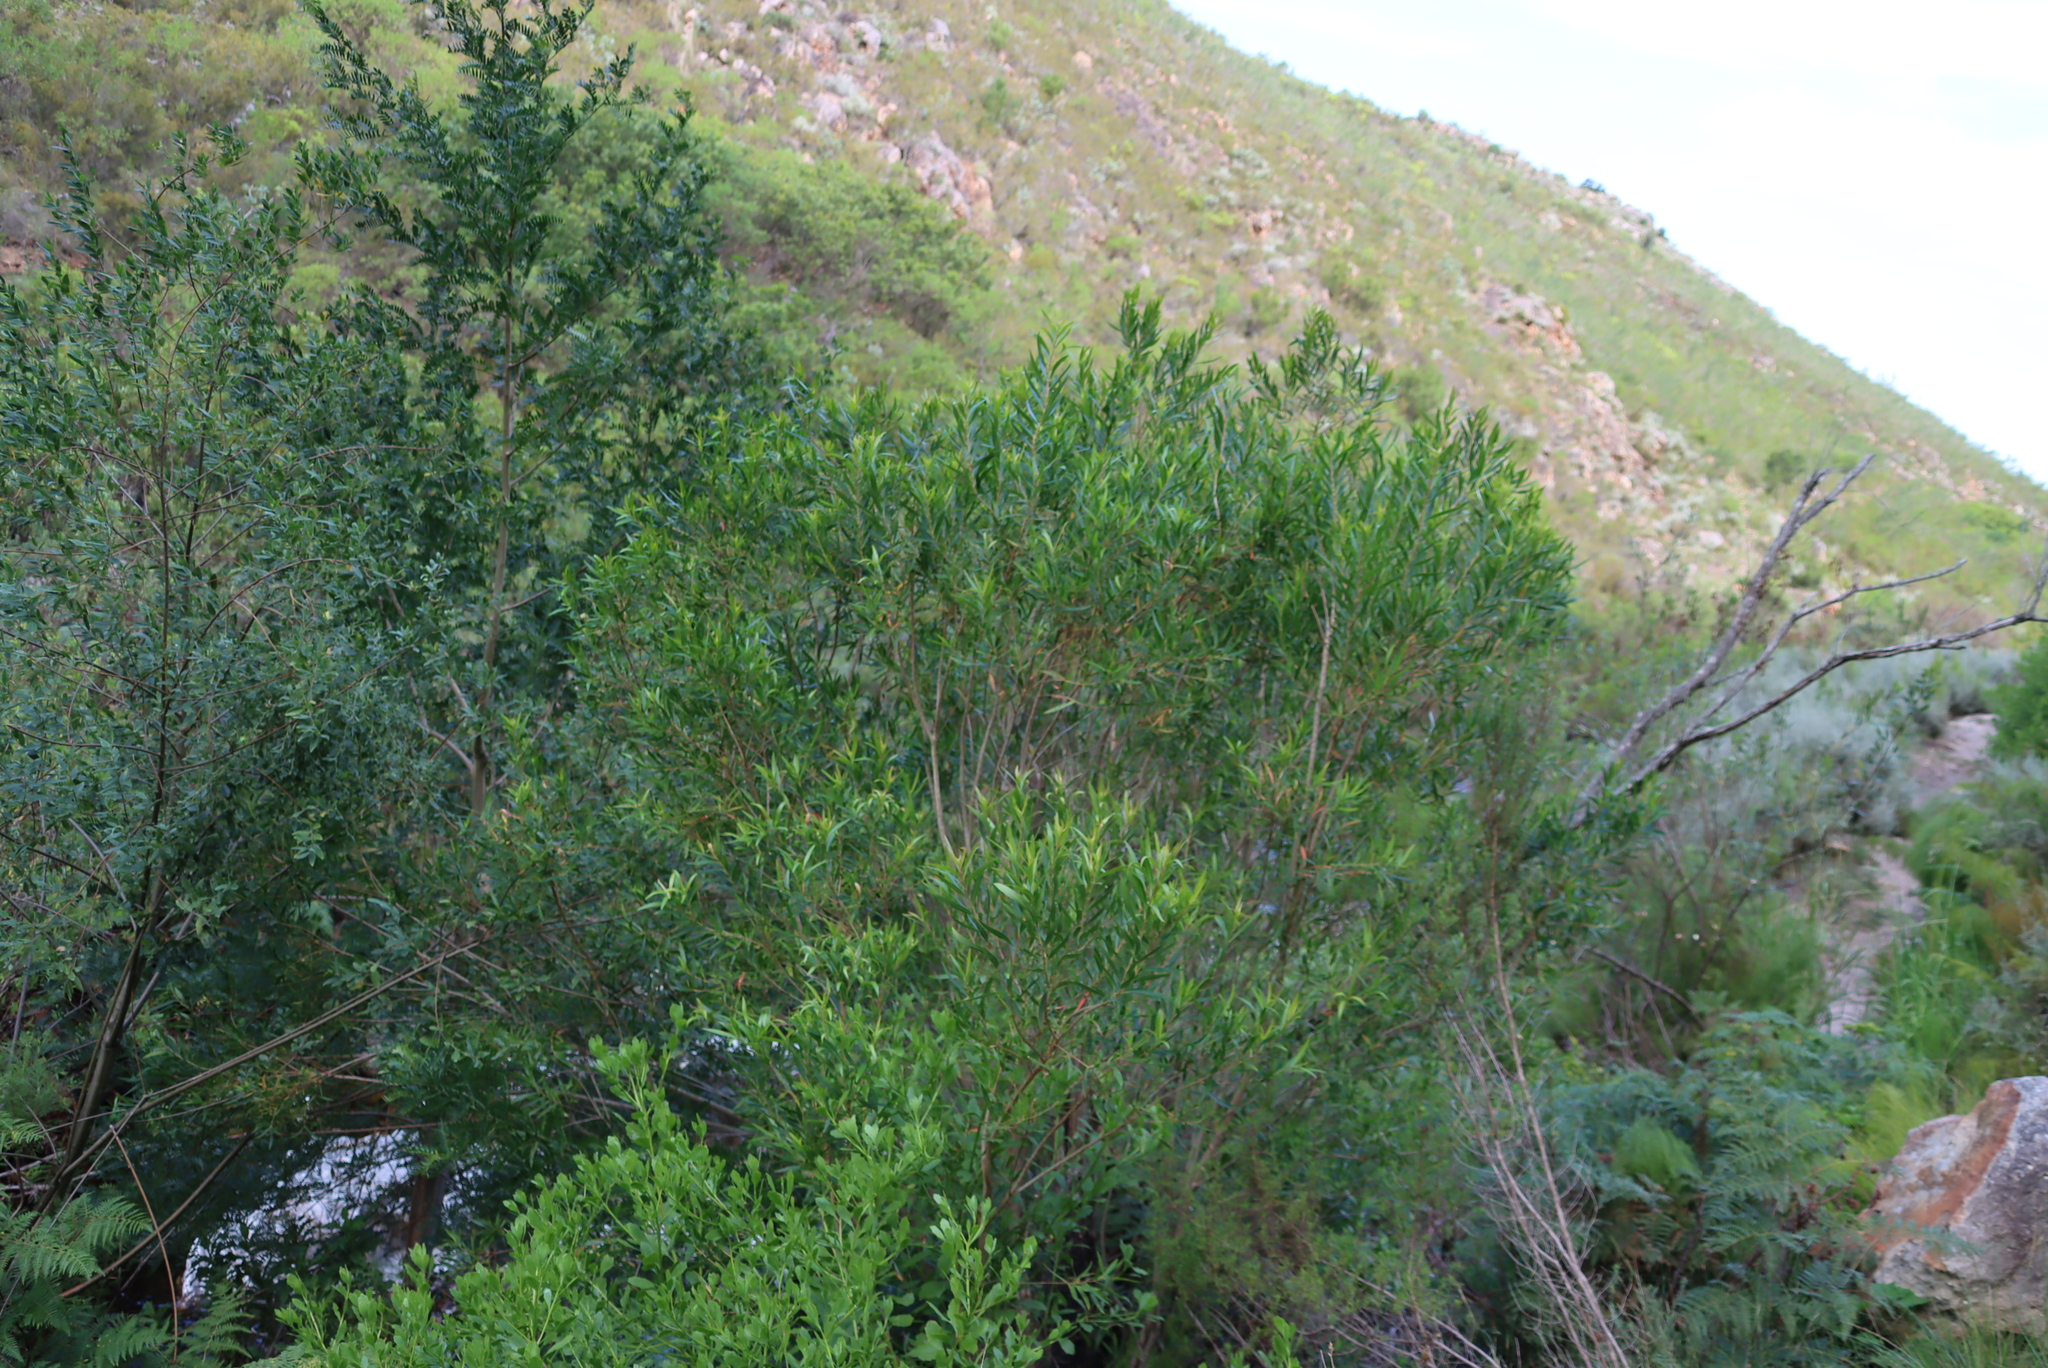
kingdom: Plantae
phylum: Tracheophyta
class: Magnoliopsida
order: Myrtales
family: Myrtaceae
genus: Callistemon
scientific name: Callistemon lanceolatus
